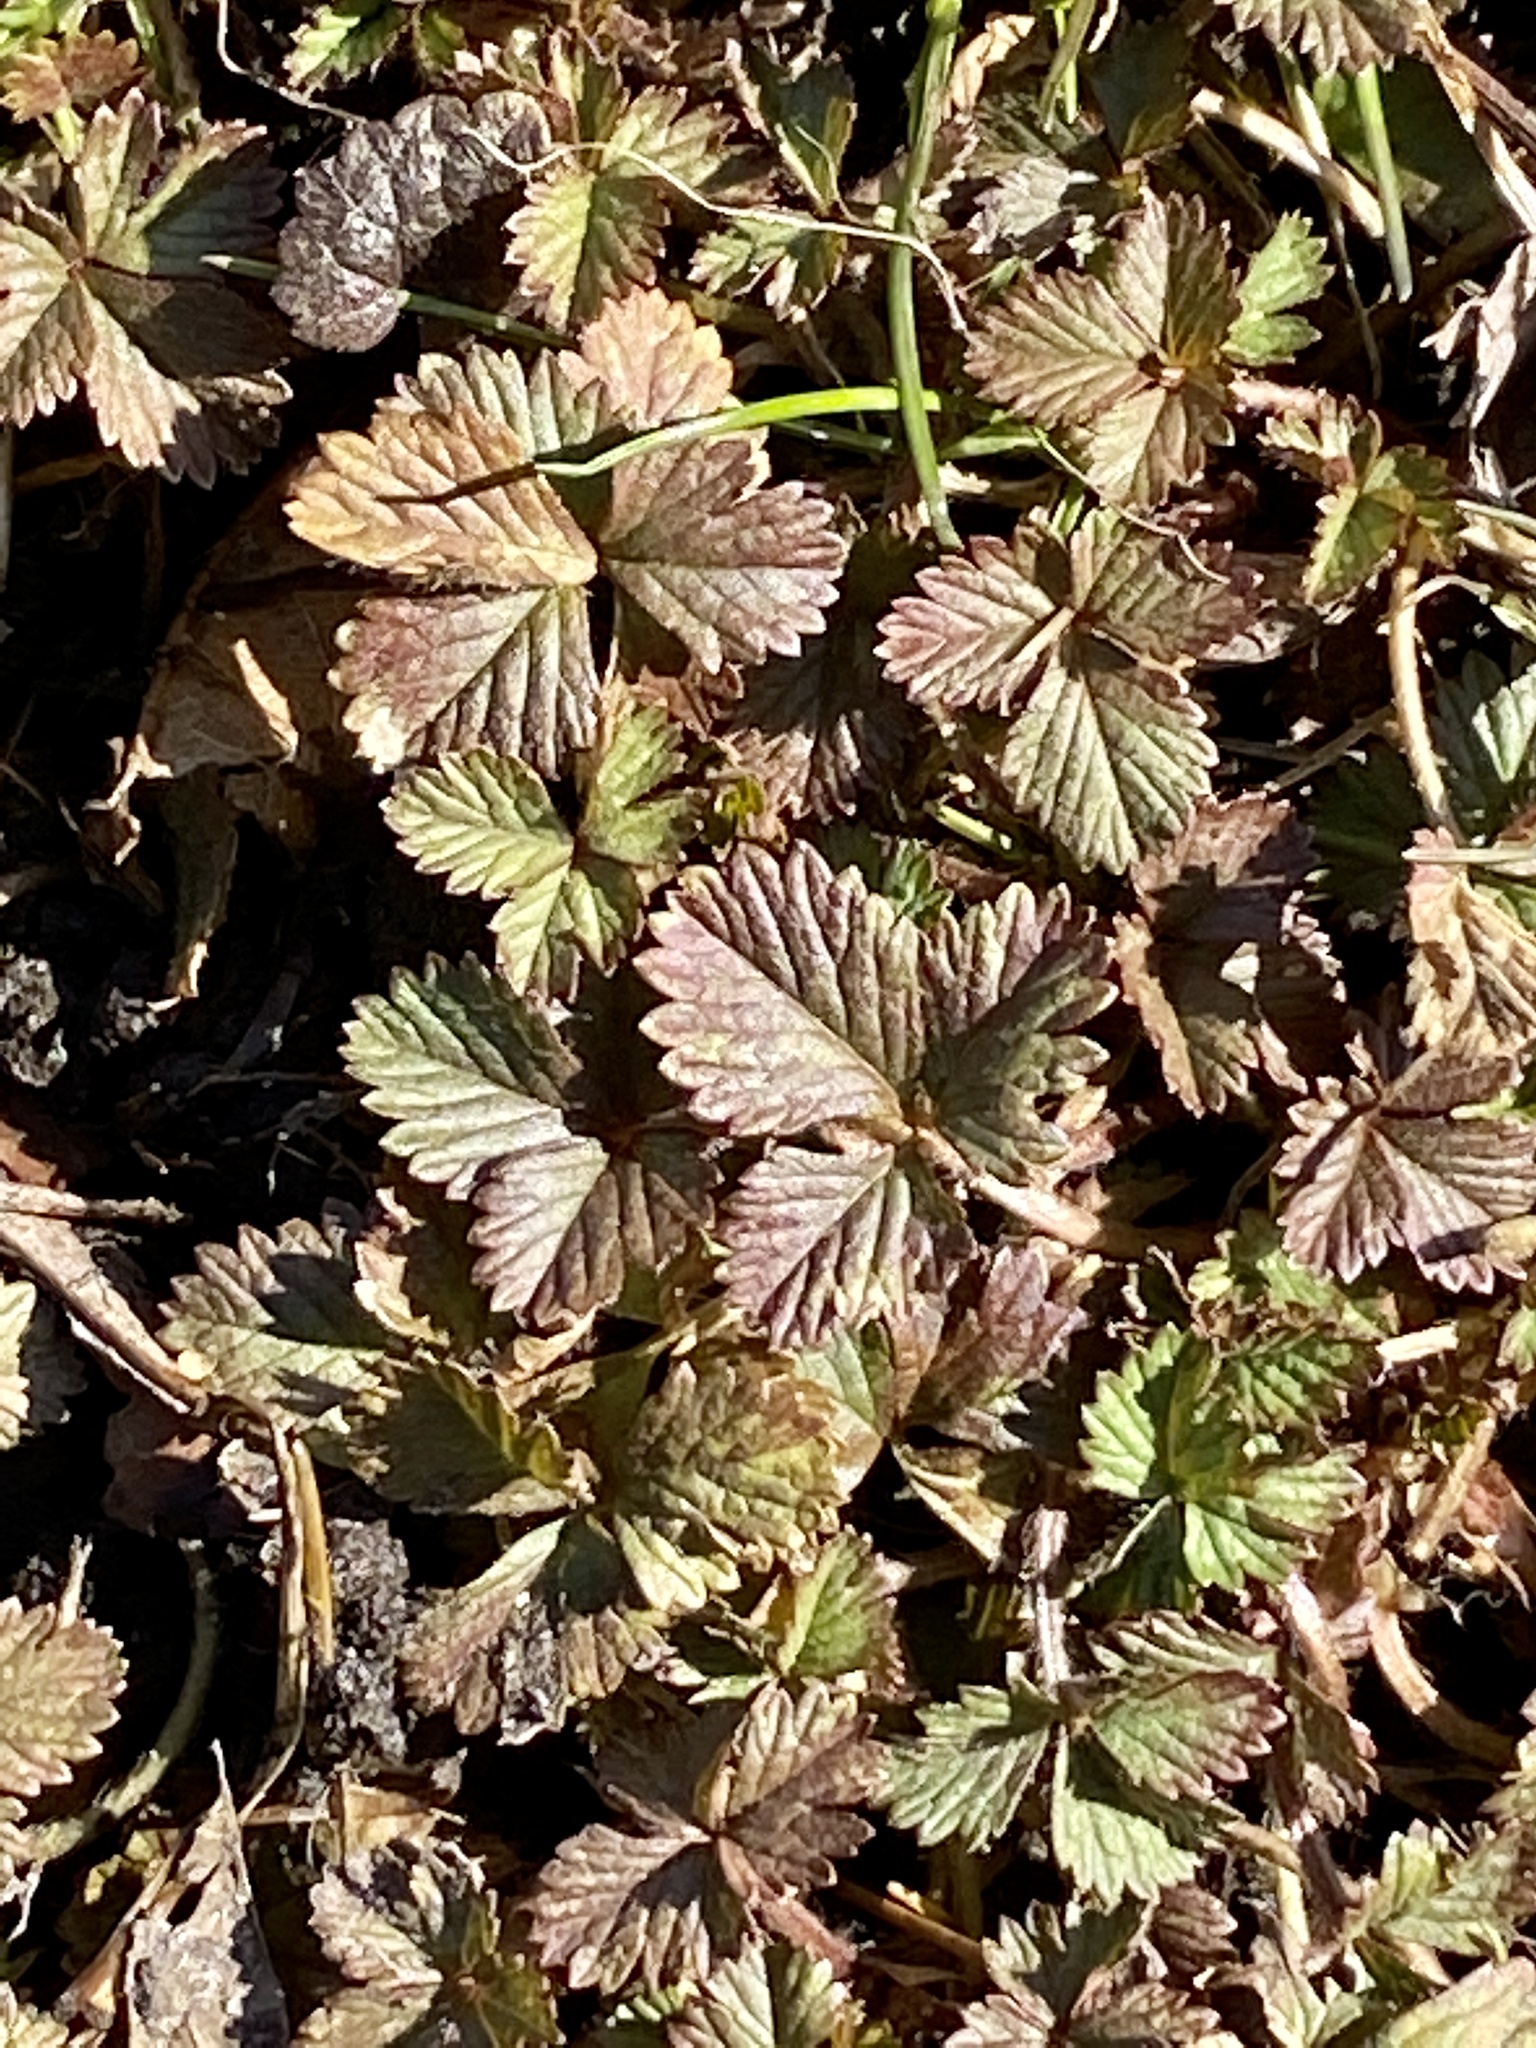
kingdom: Plantae
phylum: Tracheophyta
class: Magnoliopsida
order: Rosales
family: Rosaceae
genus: Potentilla
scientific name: Potentilla indica
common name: Yellow-flowered strawberry
